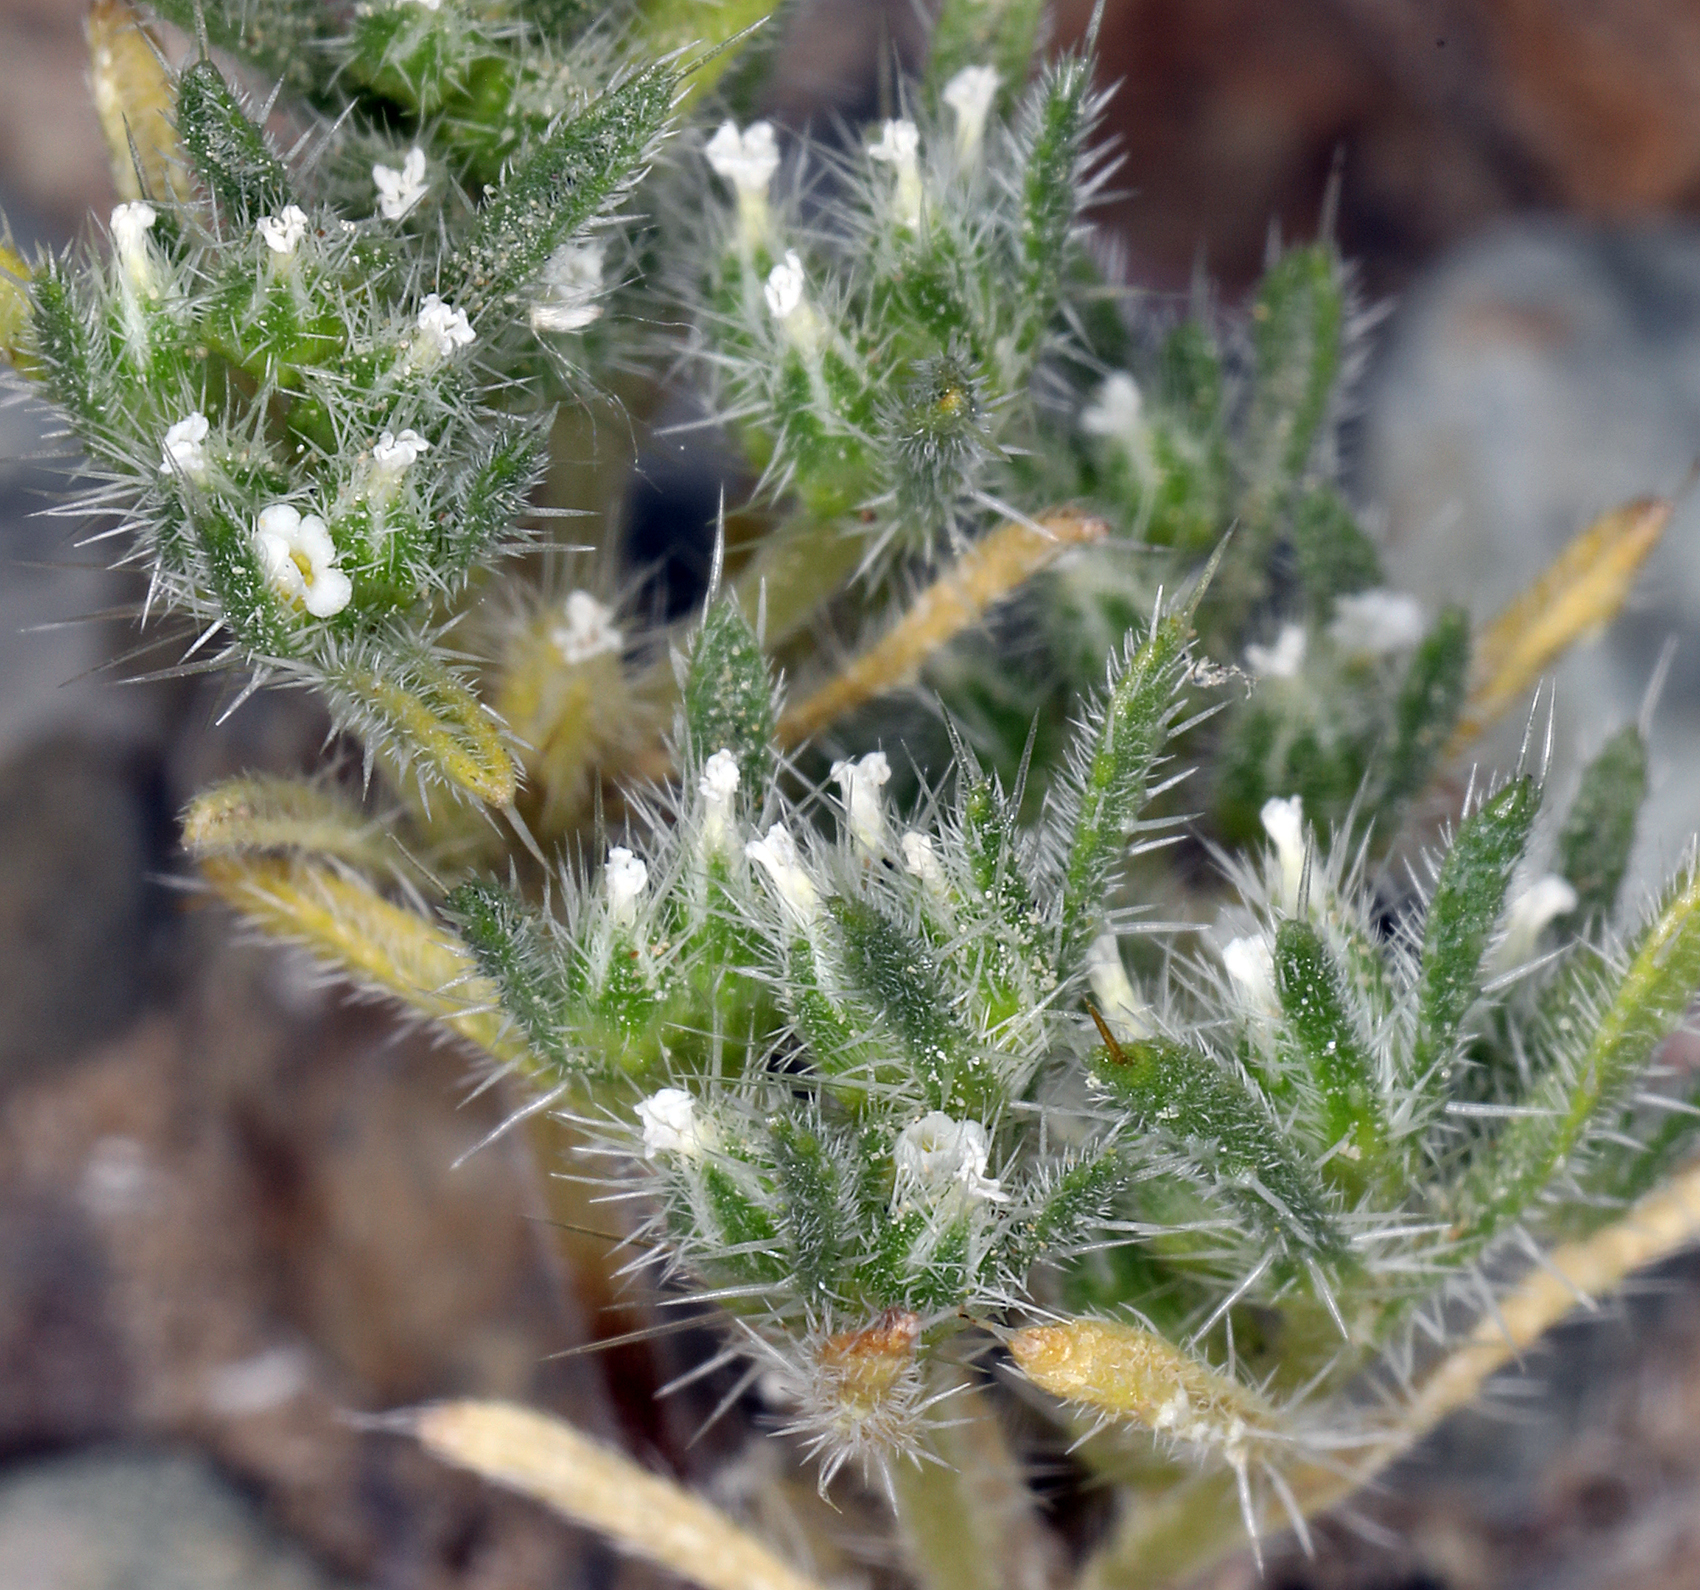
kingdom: Plantae
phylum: Tracheophyta
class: Magnoliopsida
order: Boraginales
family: Boraginaceae
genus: Greeneocharis
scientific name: Greeneocharis circumscissa
